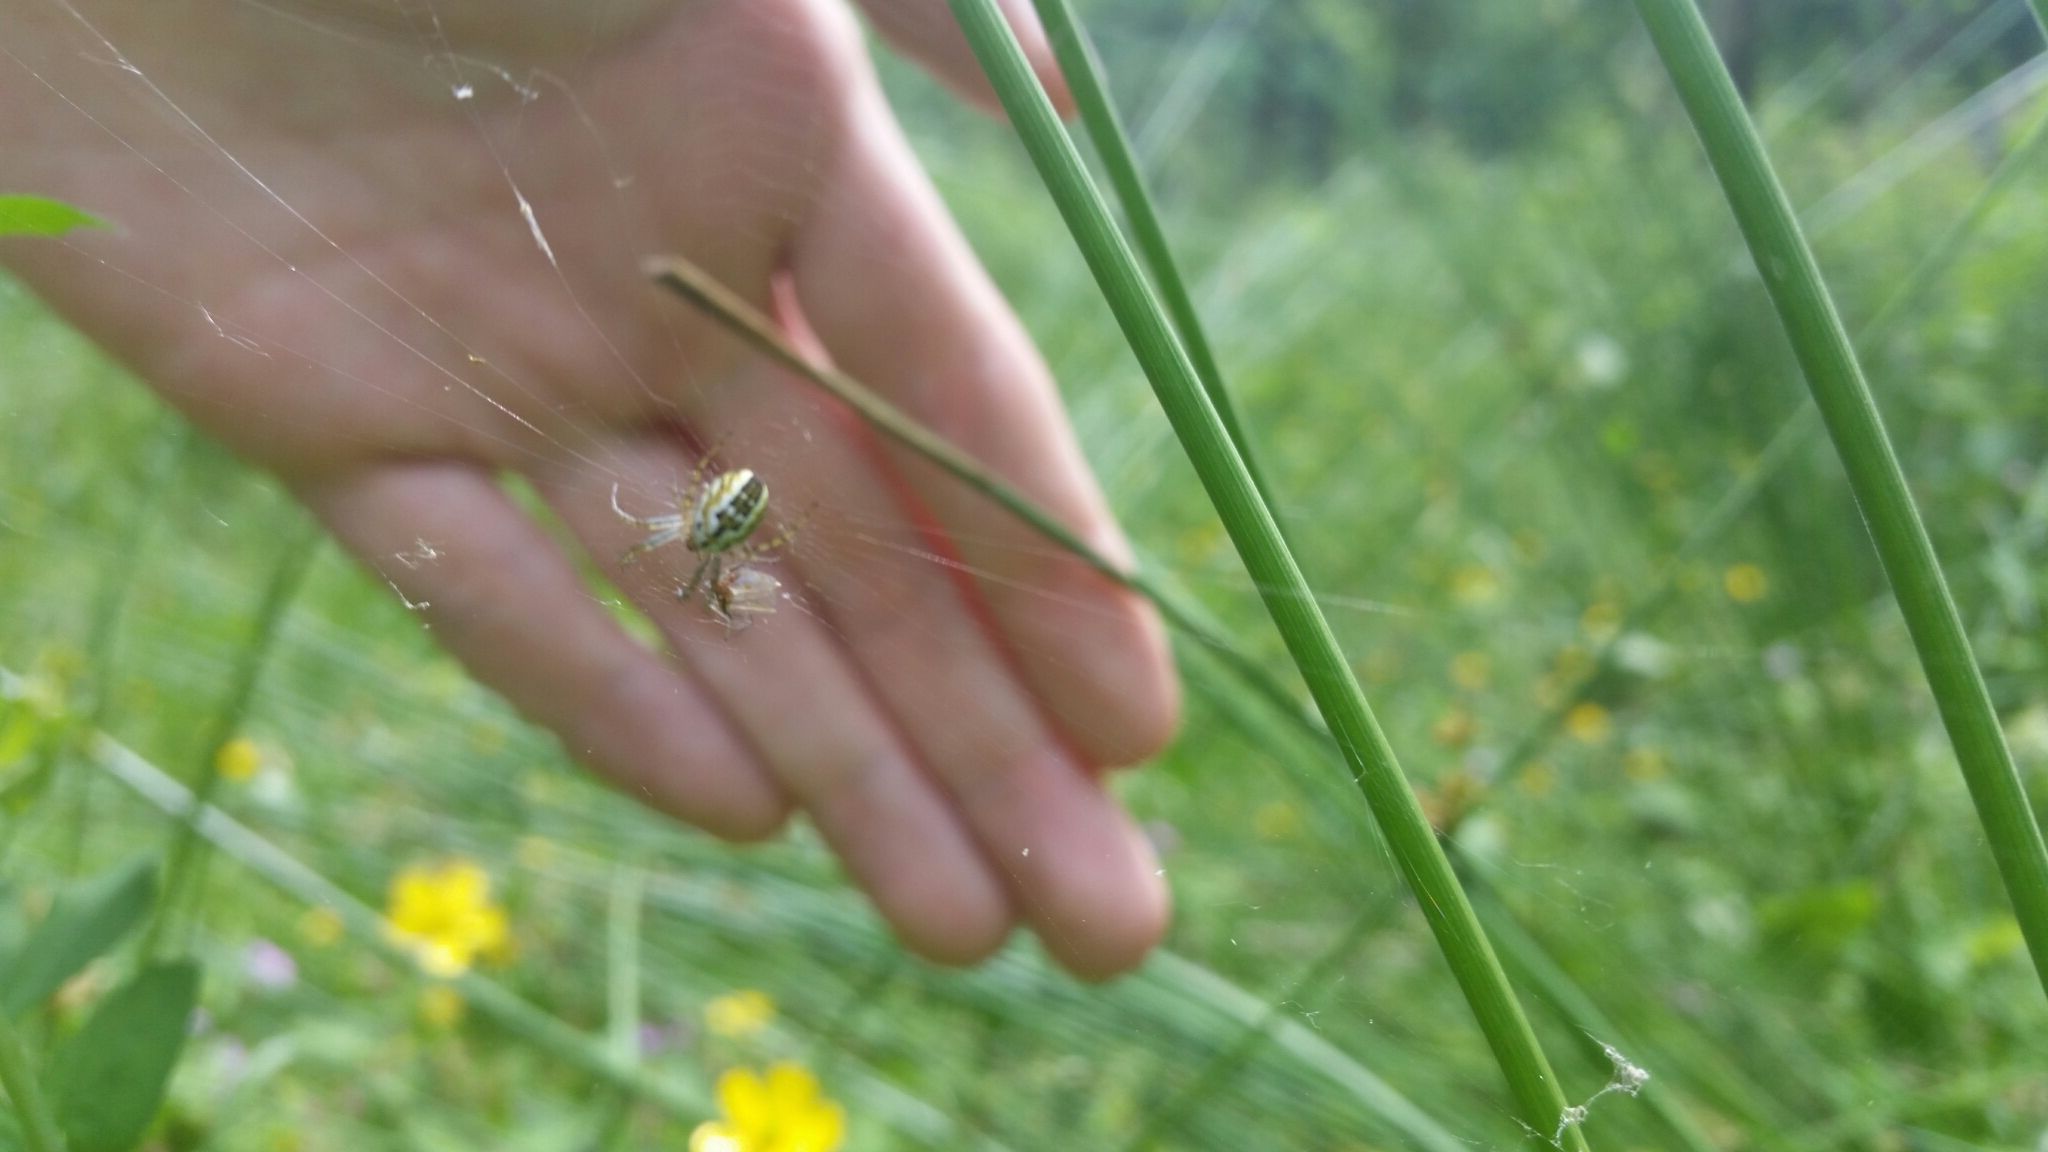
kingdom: Animalia
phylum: Arthropoda
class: Arachnida
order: Araneae
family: Araneidae
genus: Mangora
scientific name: Mangora acalypha
